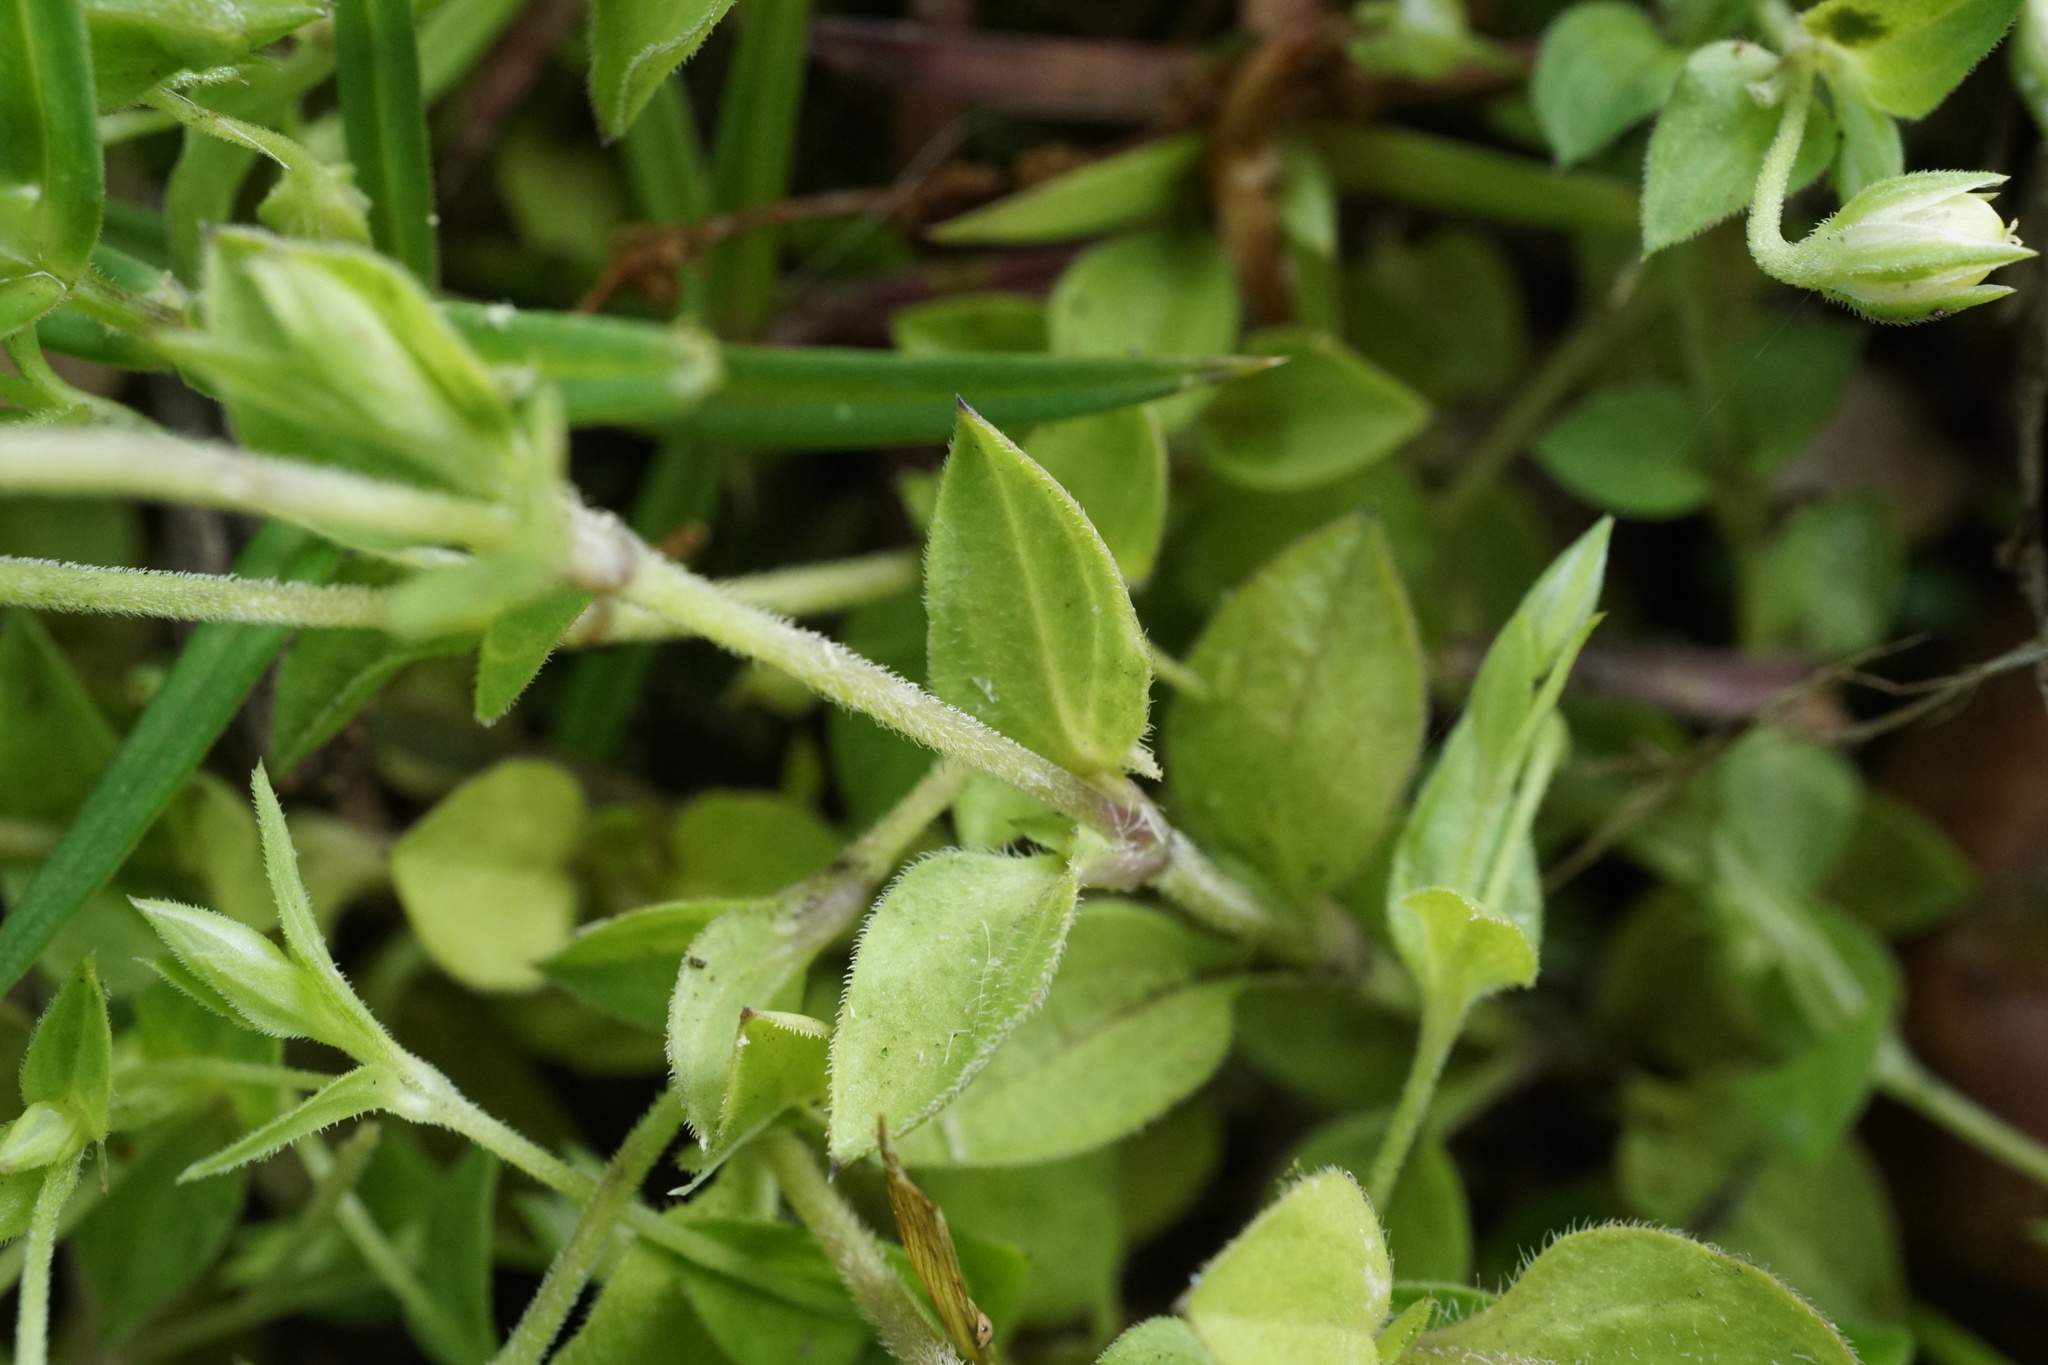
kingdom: Plantae
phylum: Tracheophyta
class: Magnoliopsida
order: Caryophyllales
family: Caryophyllaceae
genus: Stellaria
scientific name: Stellaria media
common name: Common chickweed
